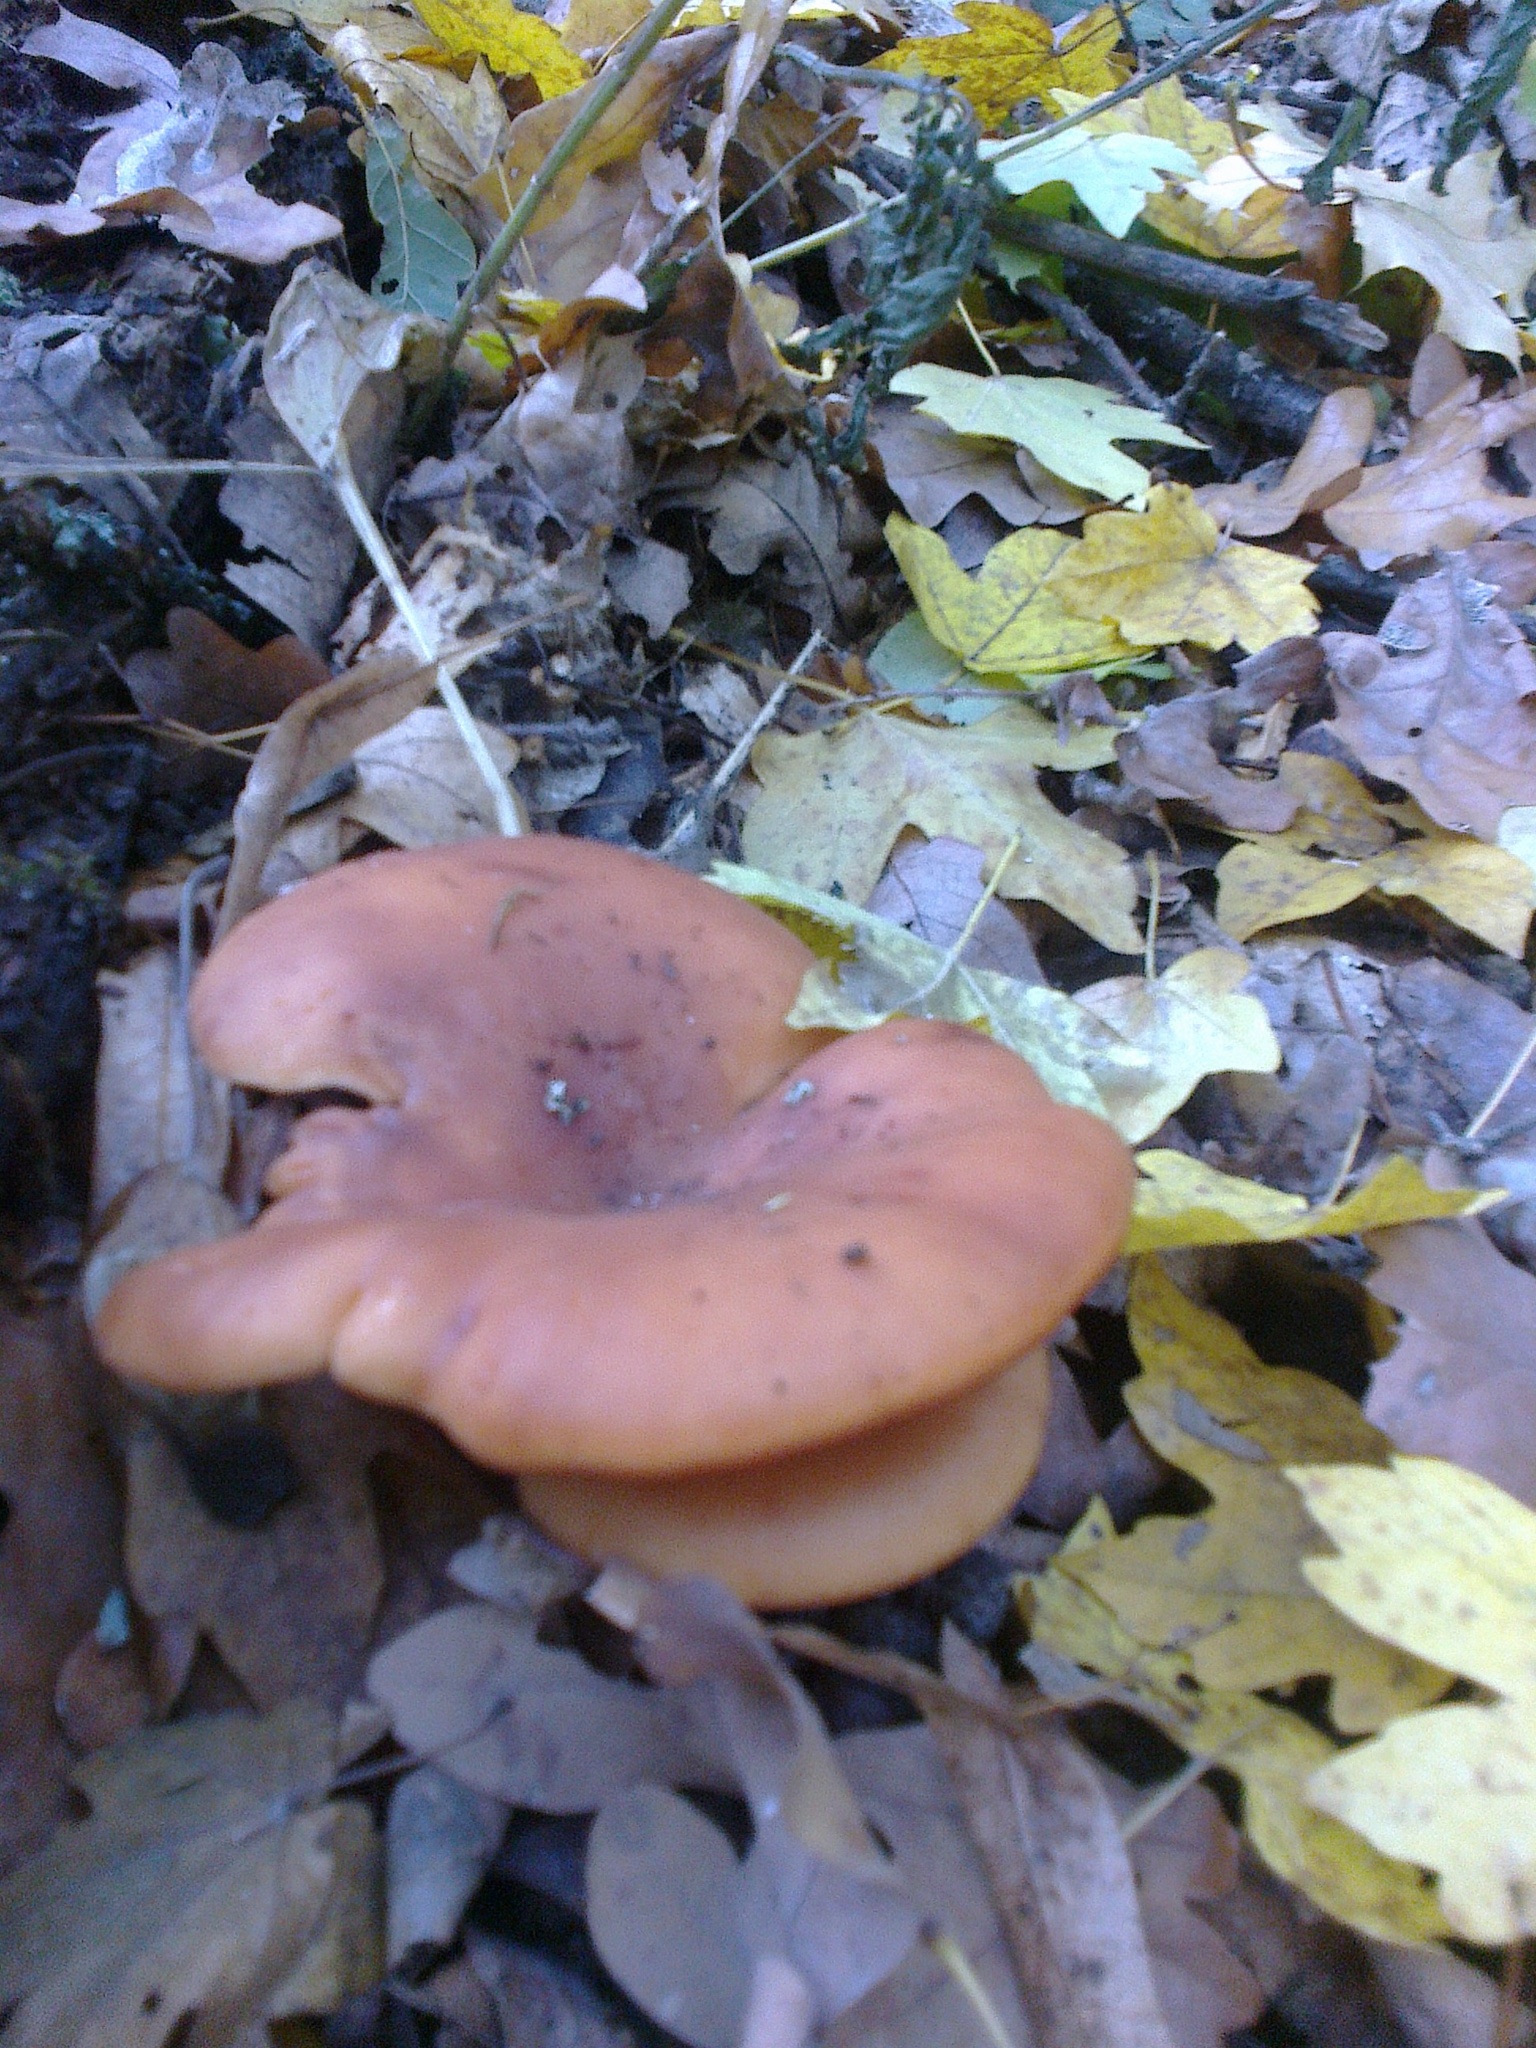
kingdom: Fungi
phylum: Basidiomycota
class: Agaricomycetes
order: Agaricales
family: Tricholomataceae
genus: Paralepista
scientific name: Paralepista flaccida
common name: Tawny funnel cap
